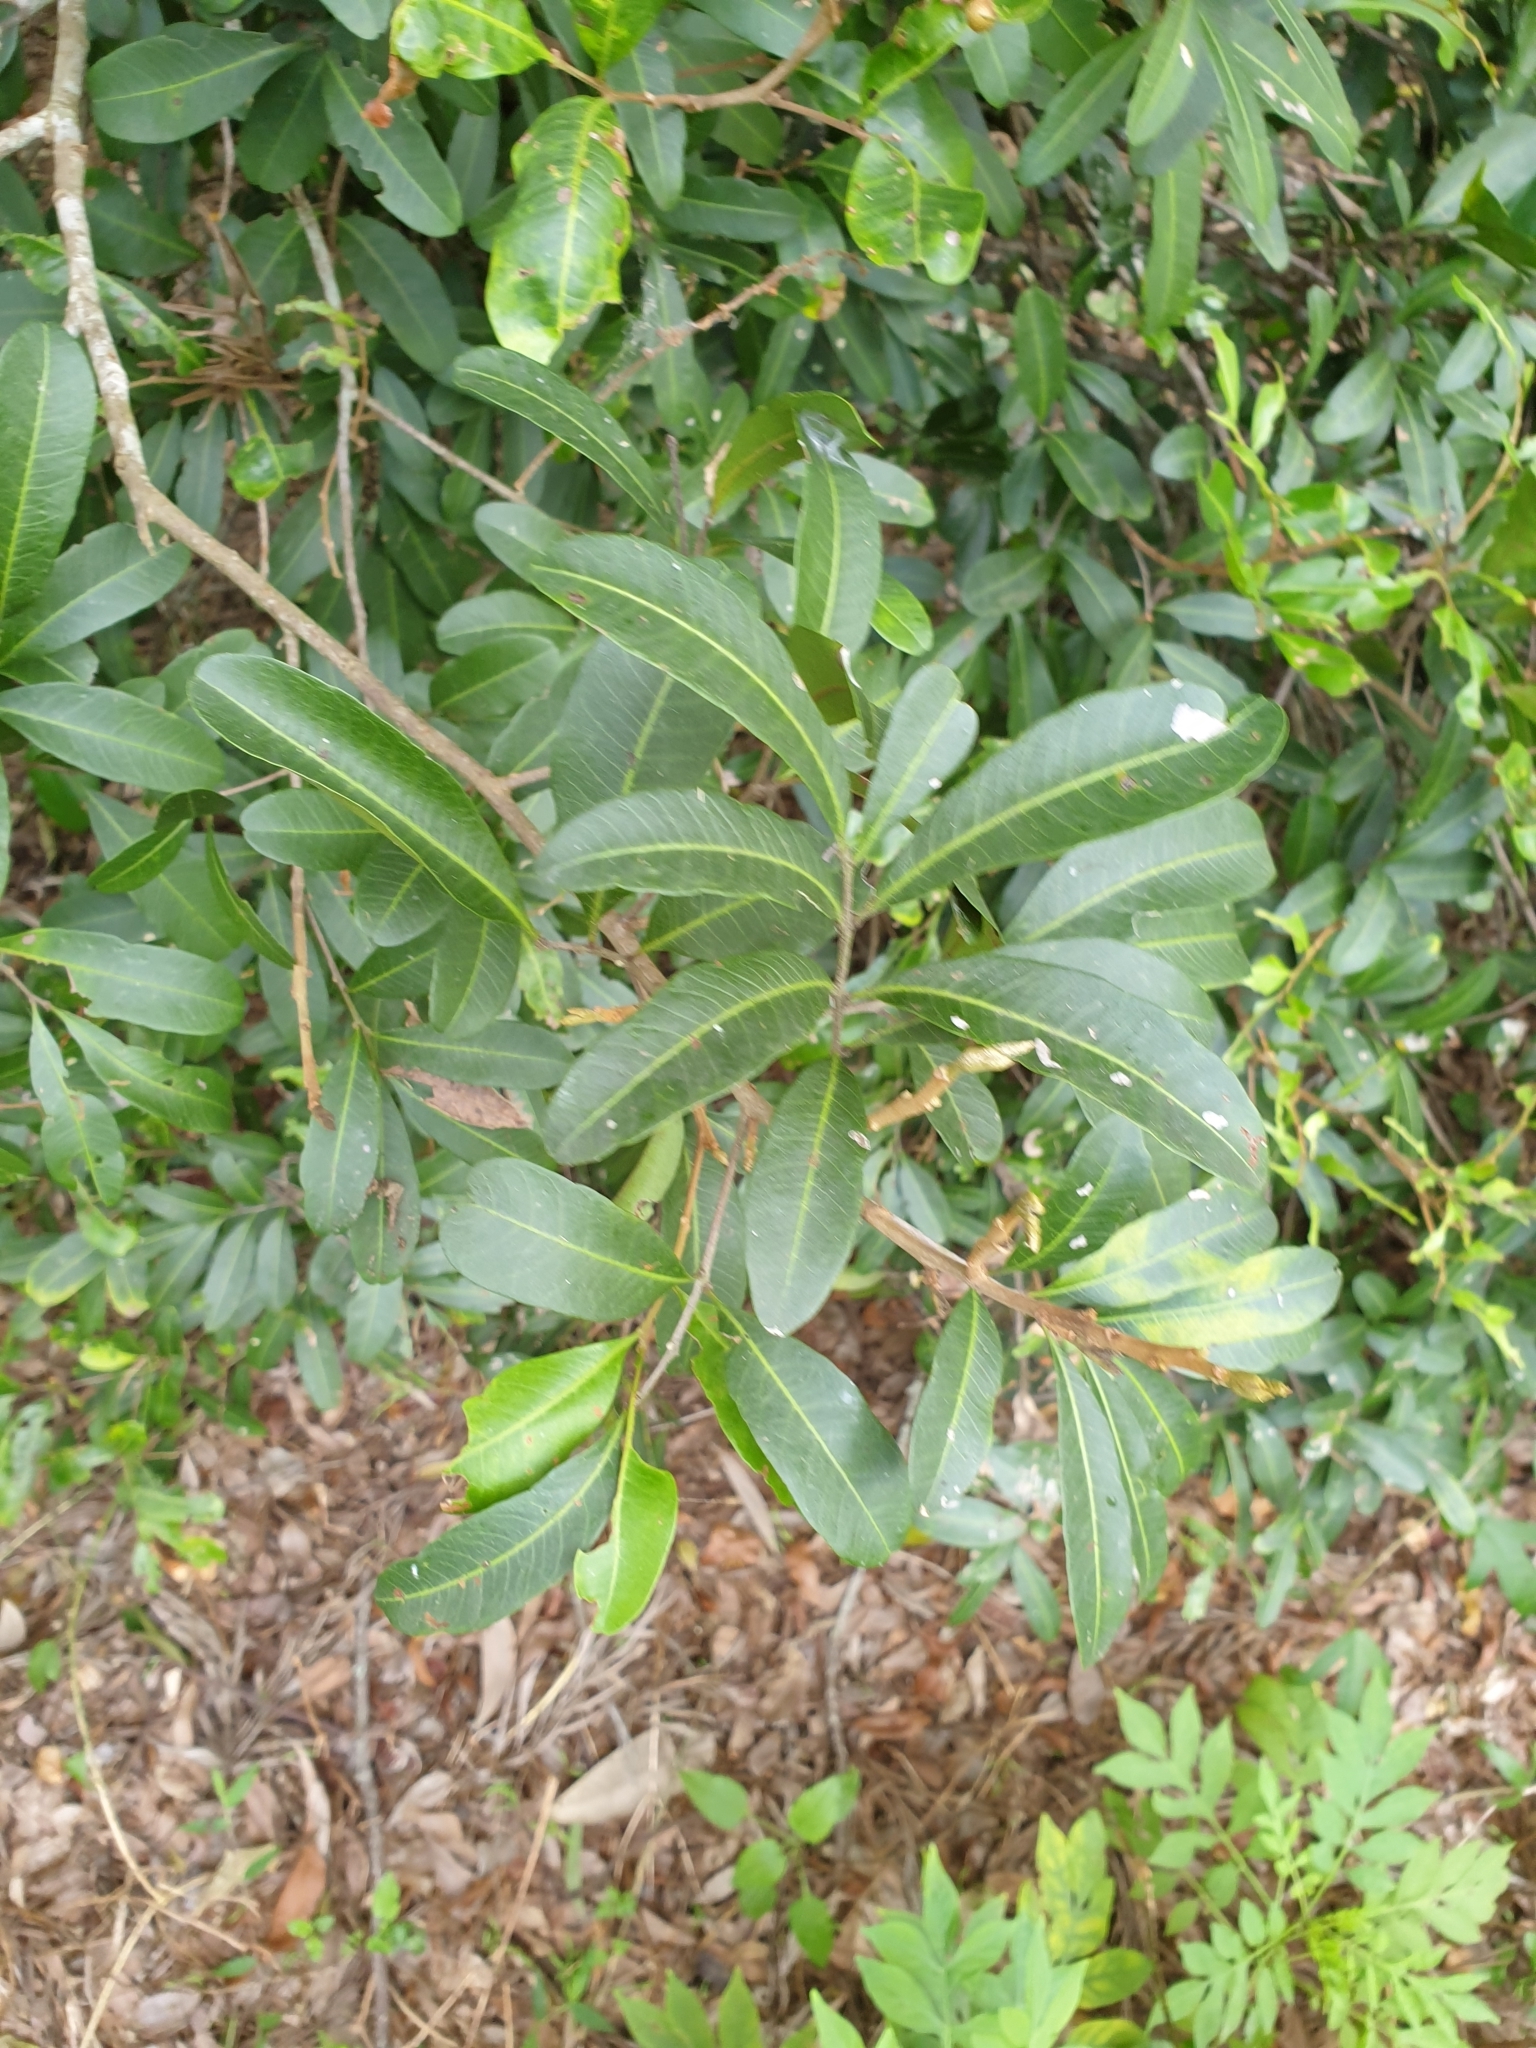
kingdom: Plantae
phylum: Tracheophyta
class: Magnoliopsida
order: Sapindales
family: Sapindaceae
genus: Cupaniopsis
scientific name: Cupaniopsis parvifolia
